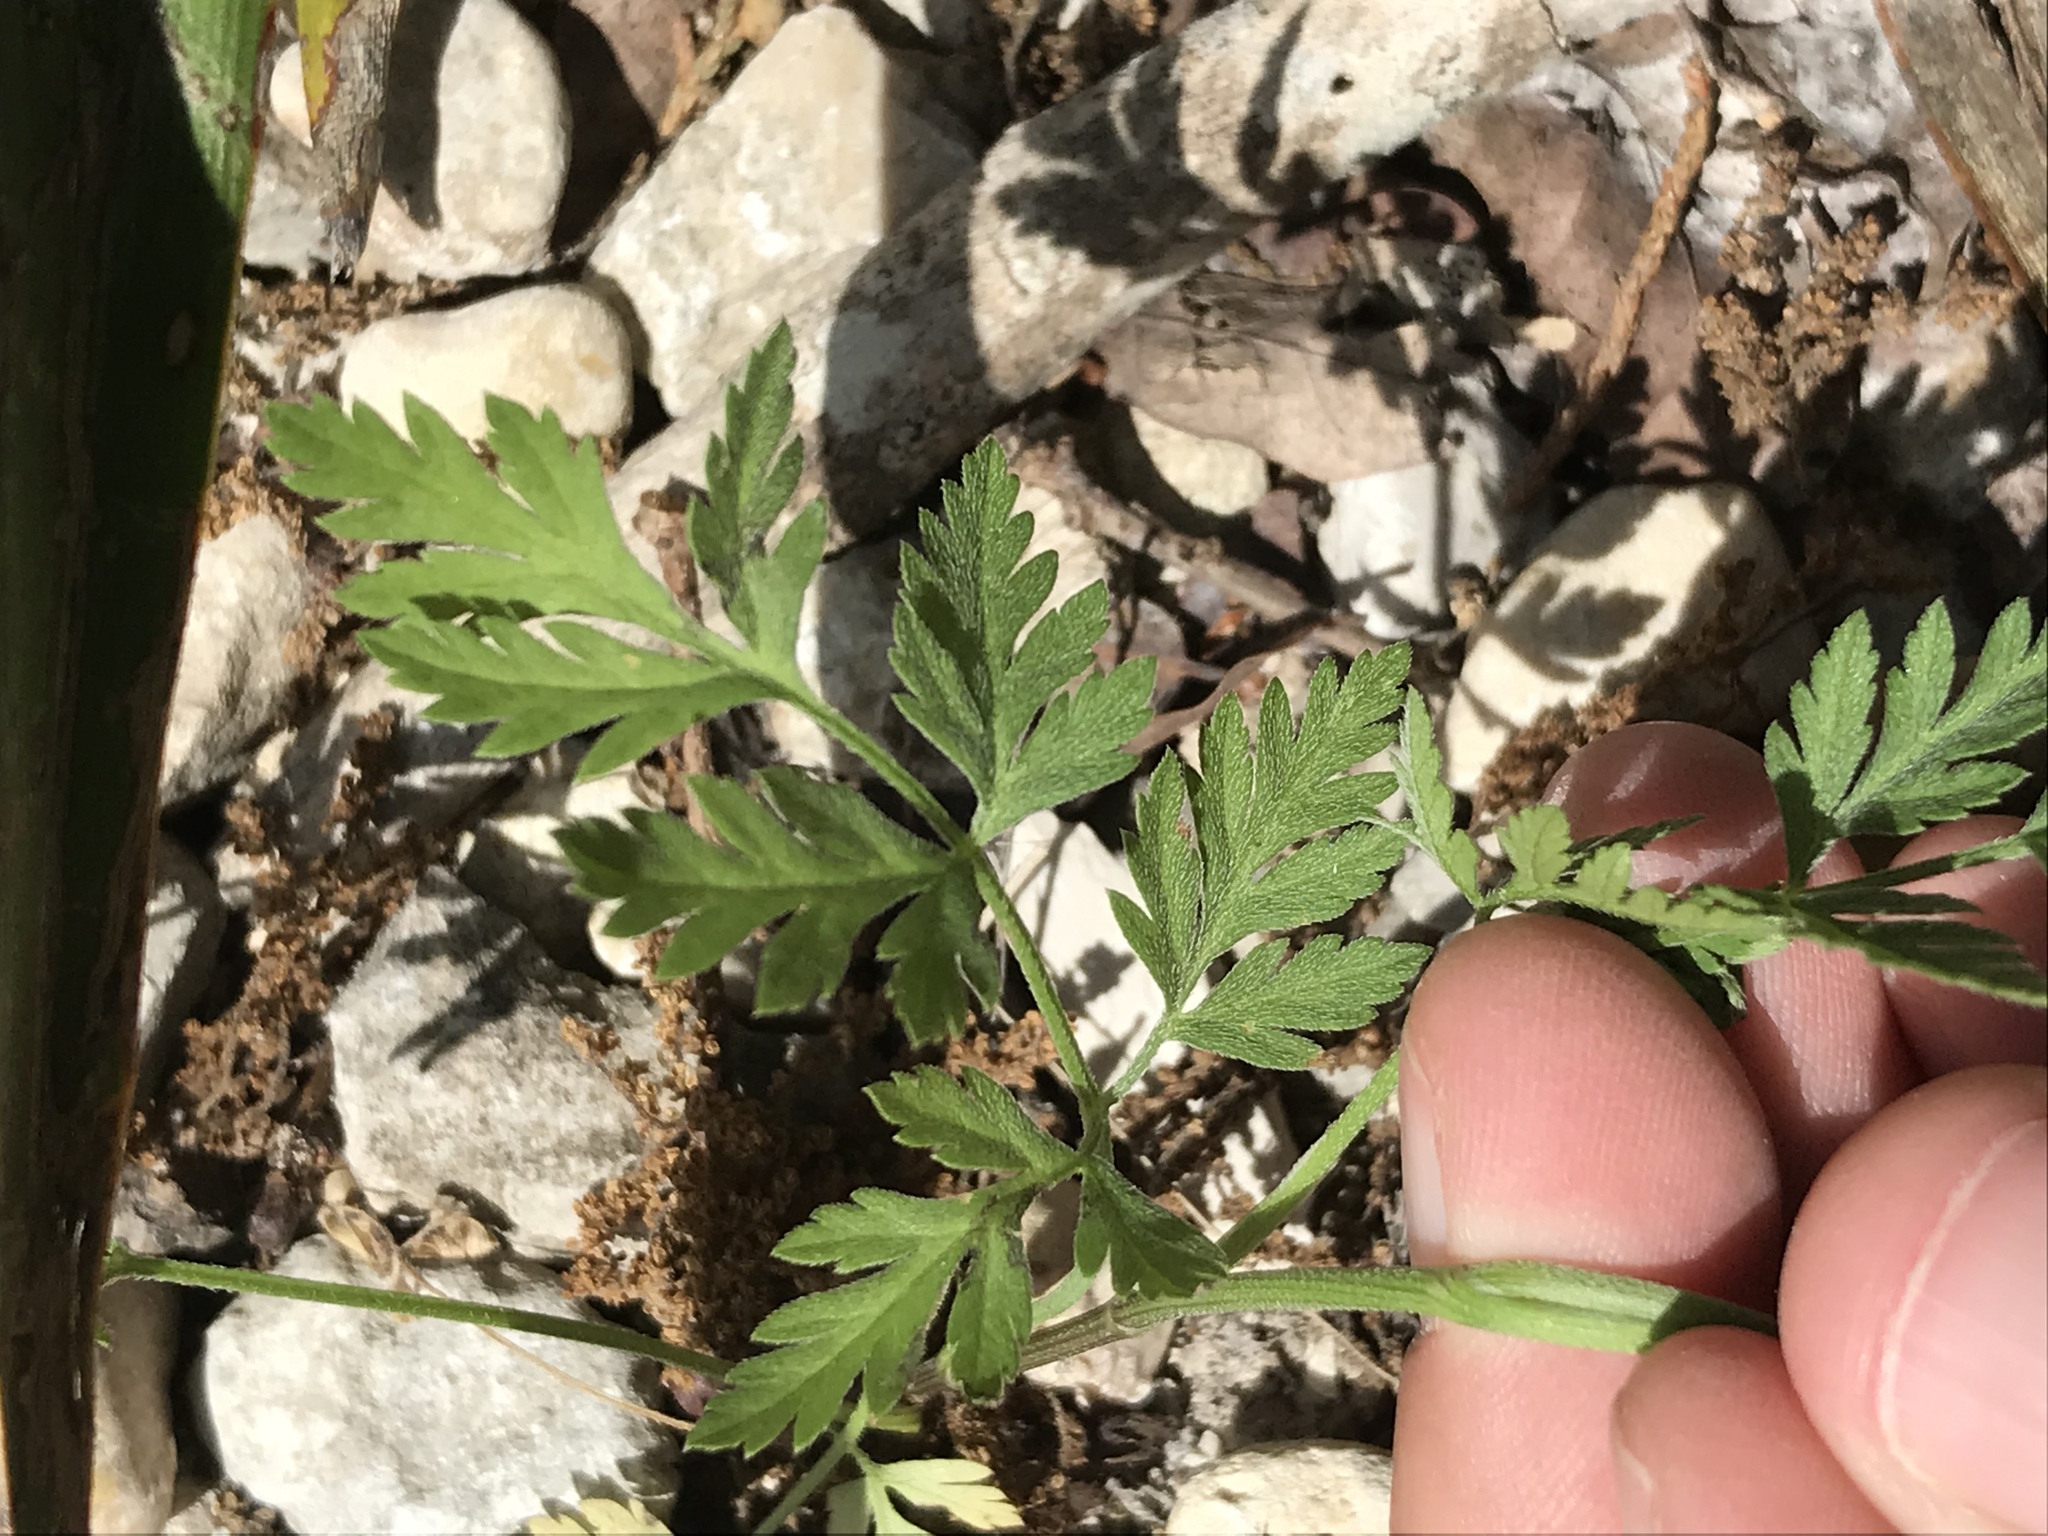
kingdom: Plantae
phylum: Tracheophyta
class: Magnoliopsida
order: Apiales
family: Apiaceae
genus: Torilis
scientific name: Torilis arvensis
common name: Spreading hedge-parsley
